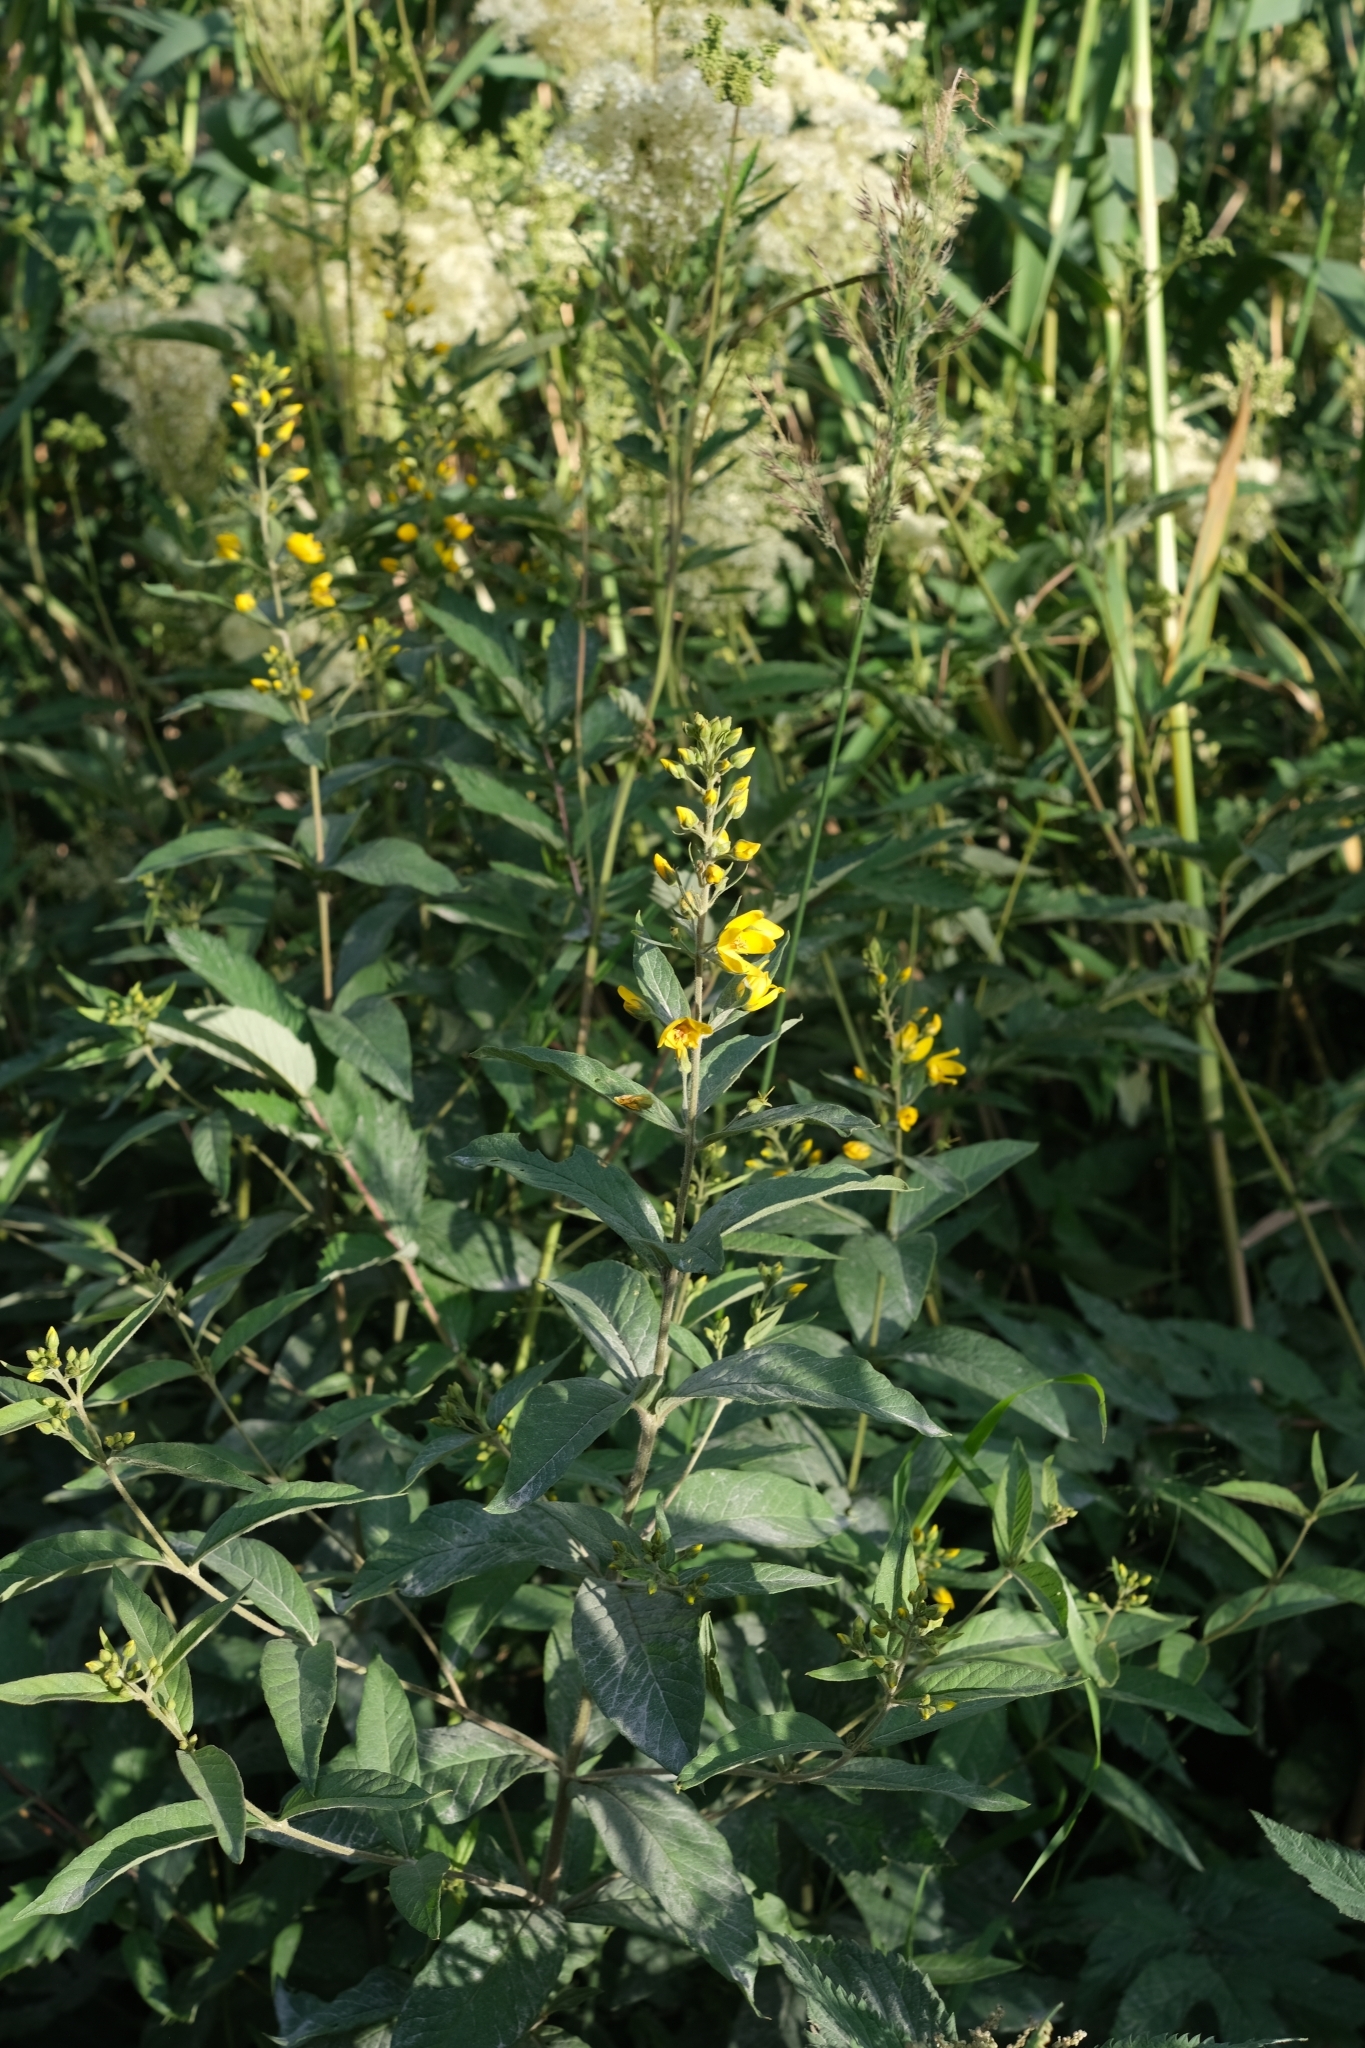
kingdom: Plantae
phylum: Tracheophyta
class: Magnoliopsida
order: Ericales
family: Primulaceae
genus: Lysimachia
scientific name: Lysimachia vulgaris
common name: Yellow loosestrife
